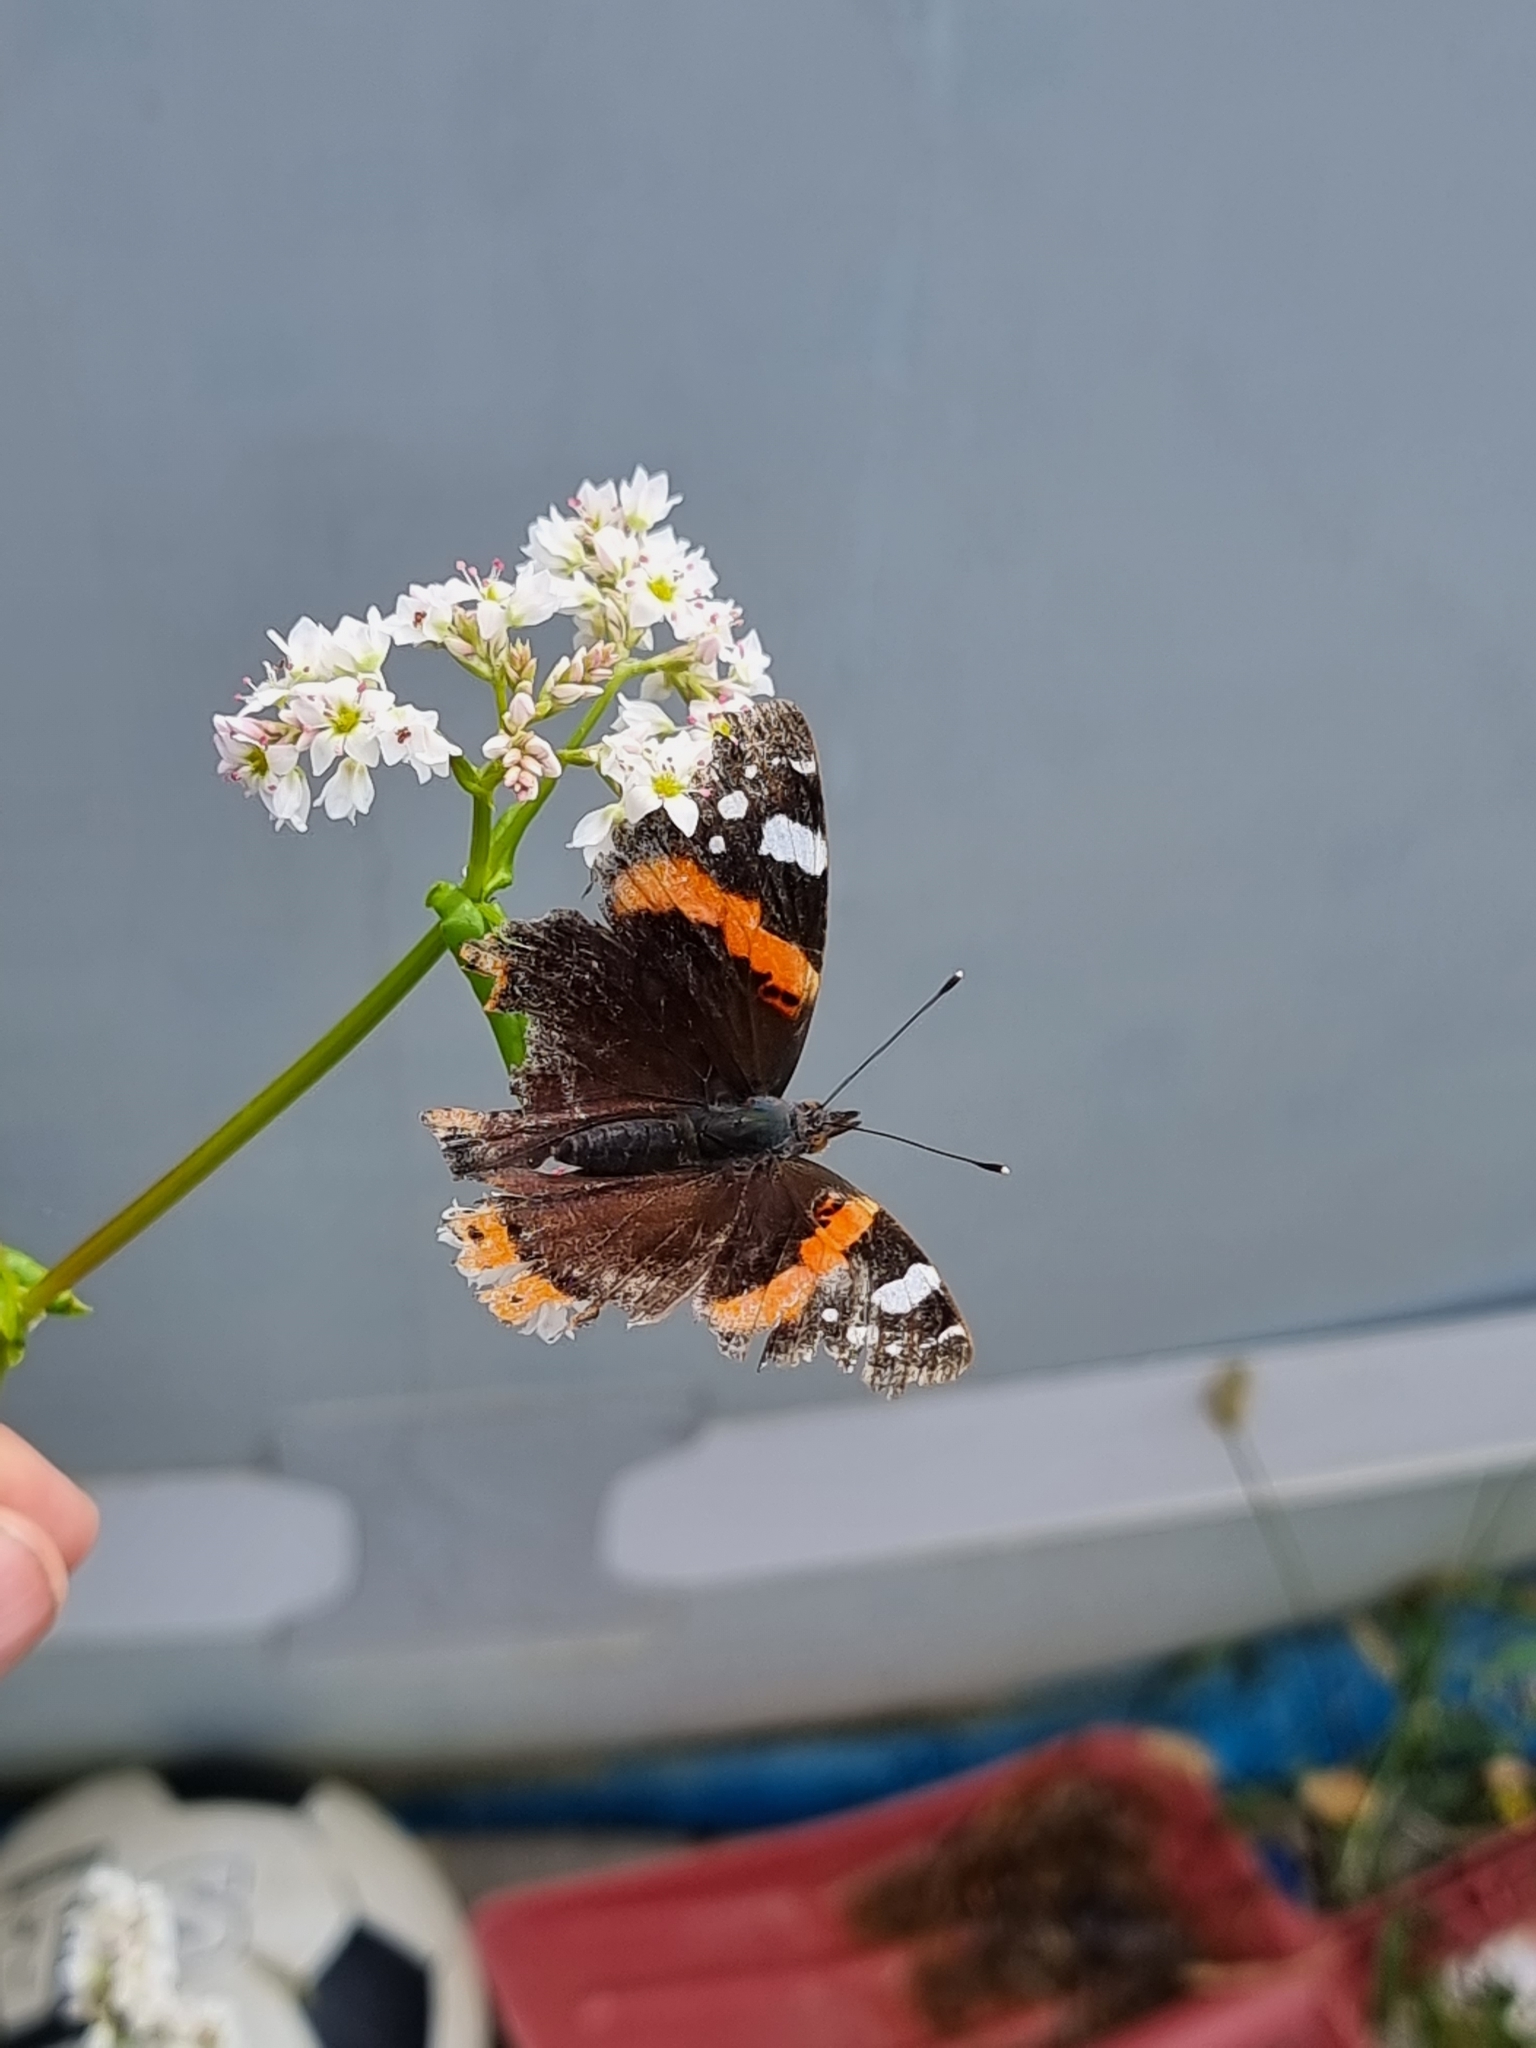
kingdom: Animalia
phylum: Arthropoda
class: Insecta
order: Lepidoptera
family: Nymphalidae
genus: Vanessa
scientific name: Vanessa atalanta
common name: Red admiral
